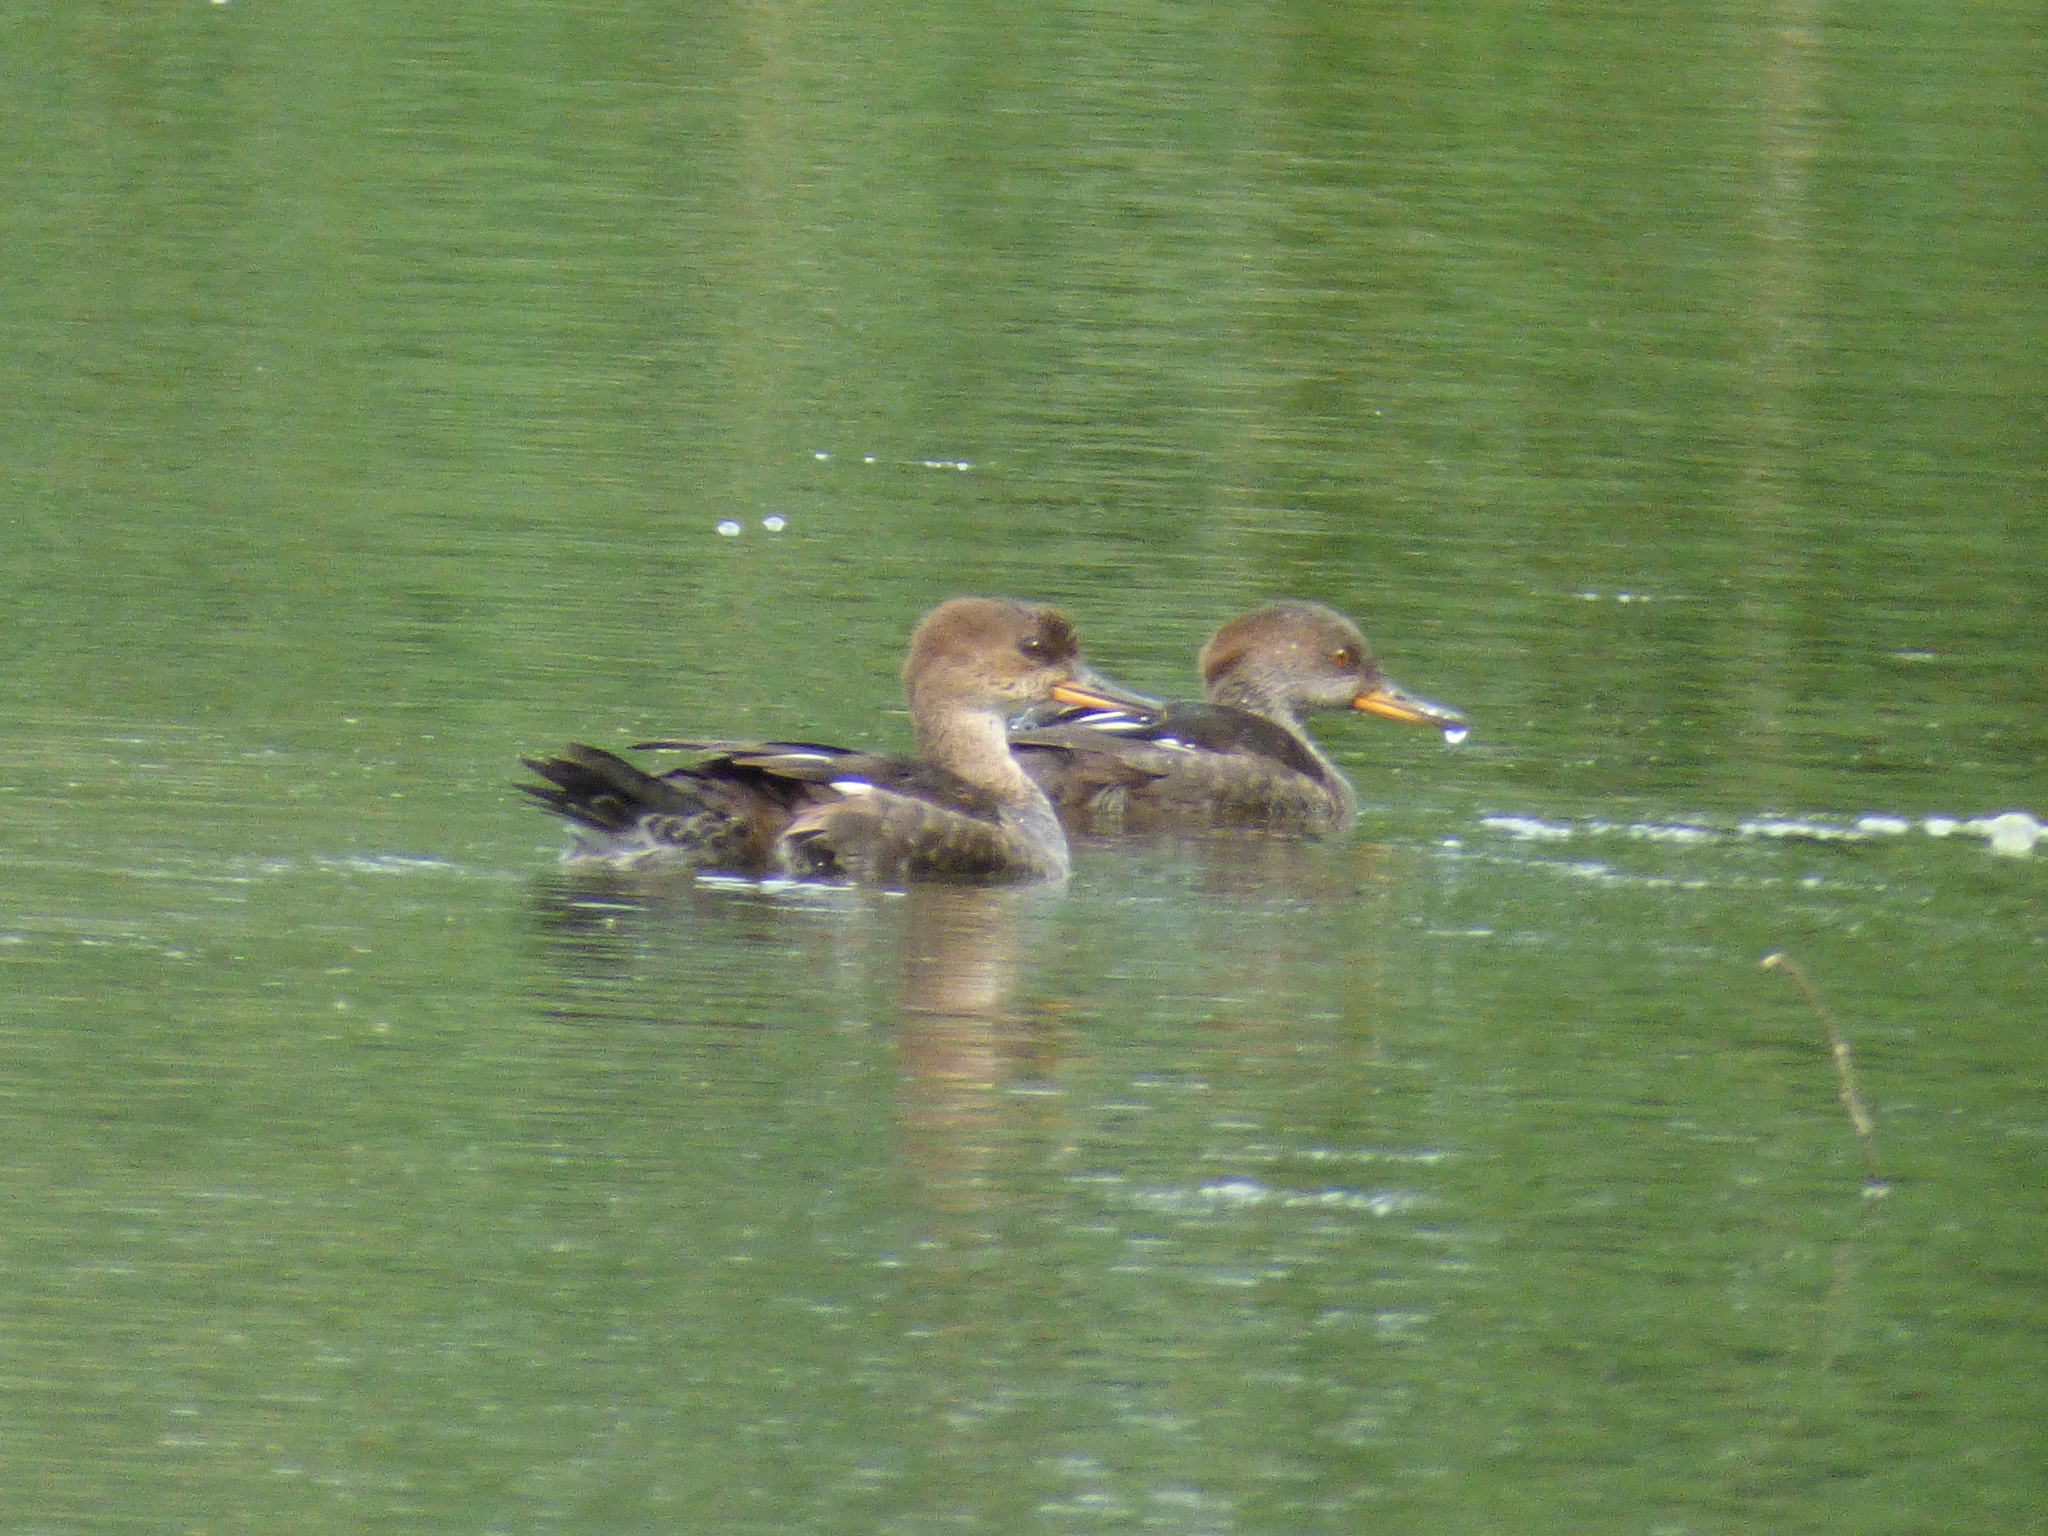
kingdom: Animalia
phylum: Chordata
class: Aves
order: Anseriformes
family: Anatidae
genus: Lophodytes
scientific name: Lophodytes cucullatus
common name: Hooded merganser
